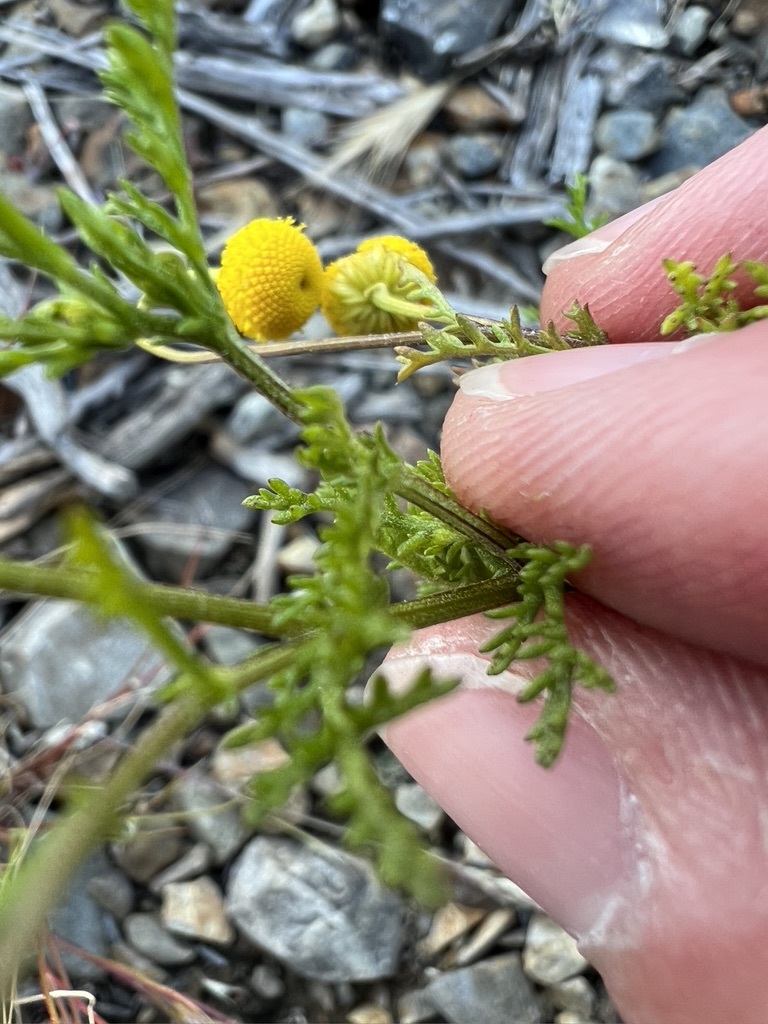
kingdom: Plantae
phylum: Tracheophyta
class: Magnoliopsida
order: Asterales
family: Asteraceae
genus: Oncosiphon
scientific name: Oncosiphon pilulifer
